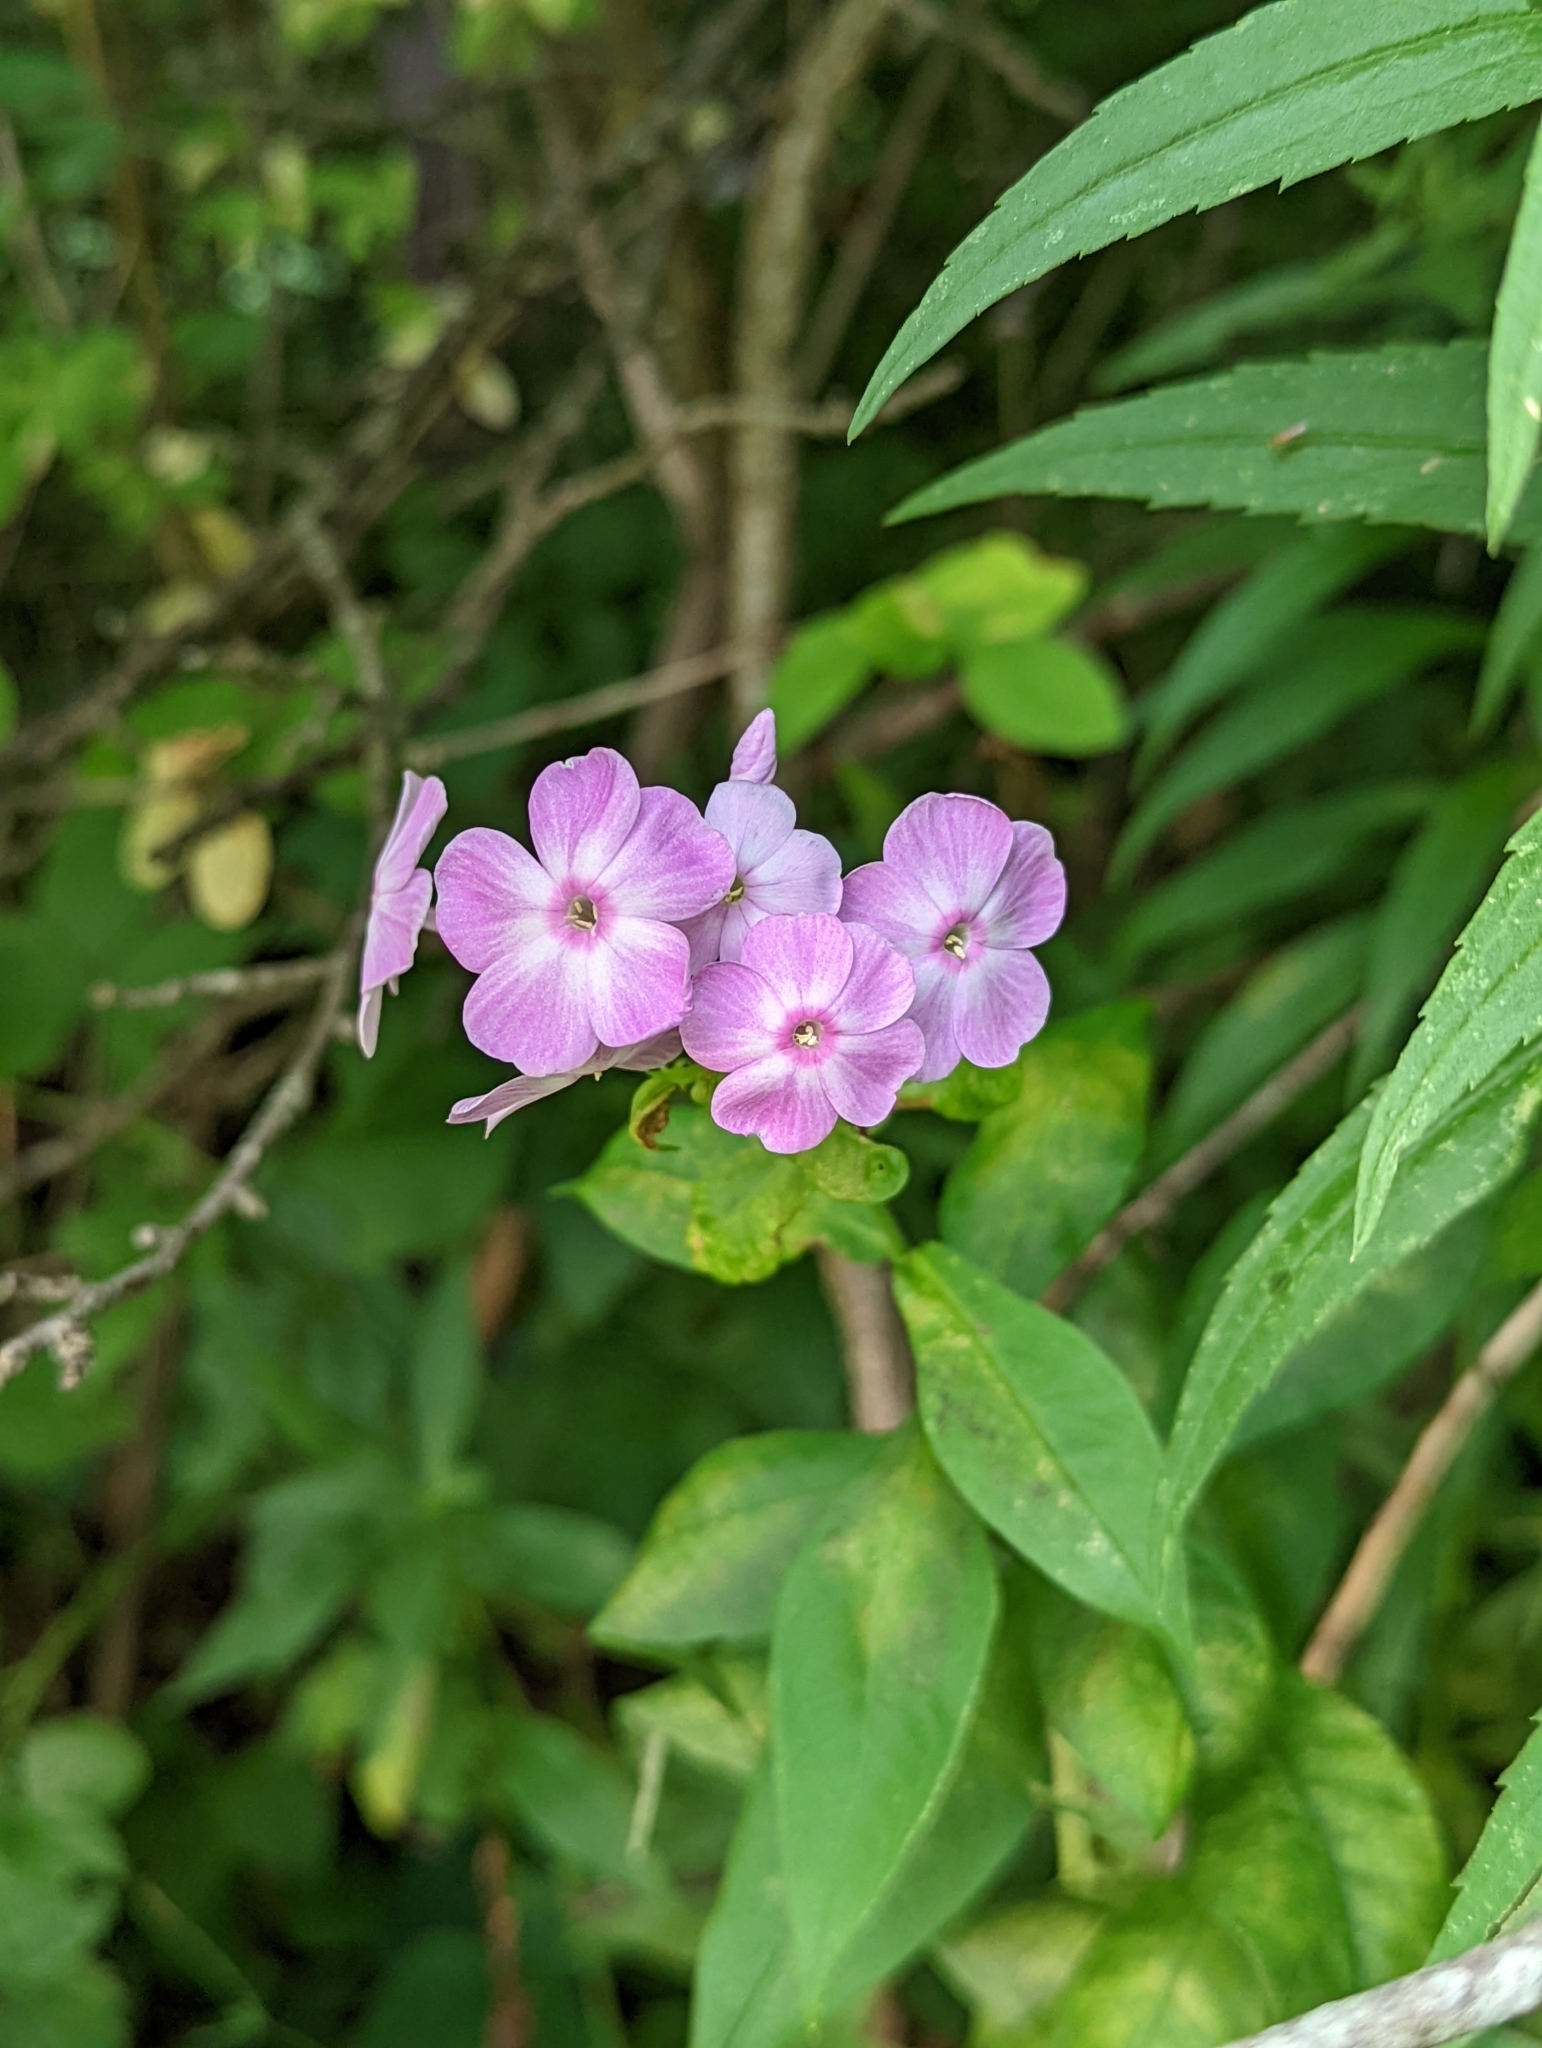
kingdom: Plantae
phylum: Tracheophyta
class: Magnoliopsida
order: Ericales
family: Polemoniaceae
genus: Phlox
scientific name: Phlox paniculata
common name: Fall phlox
